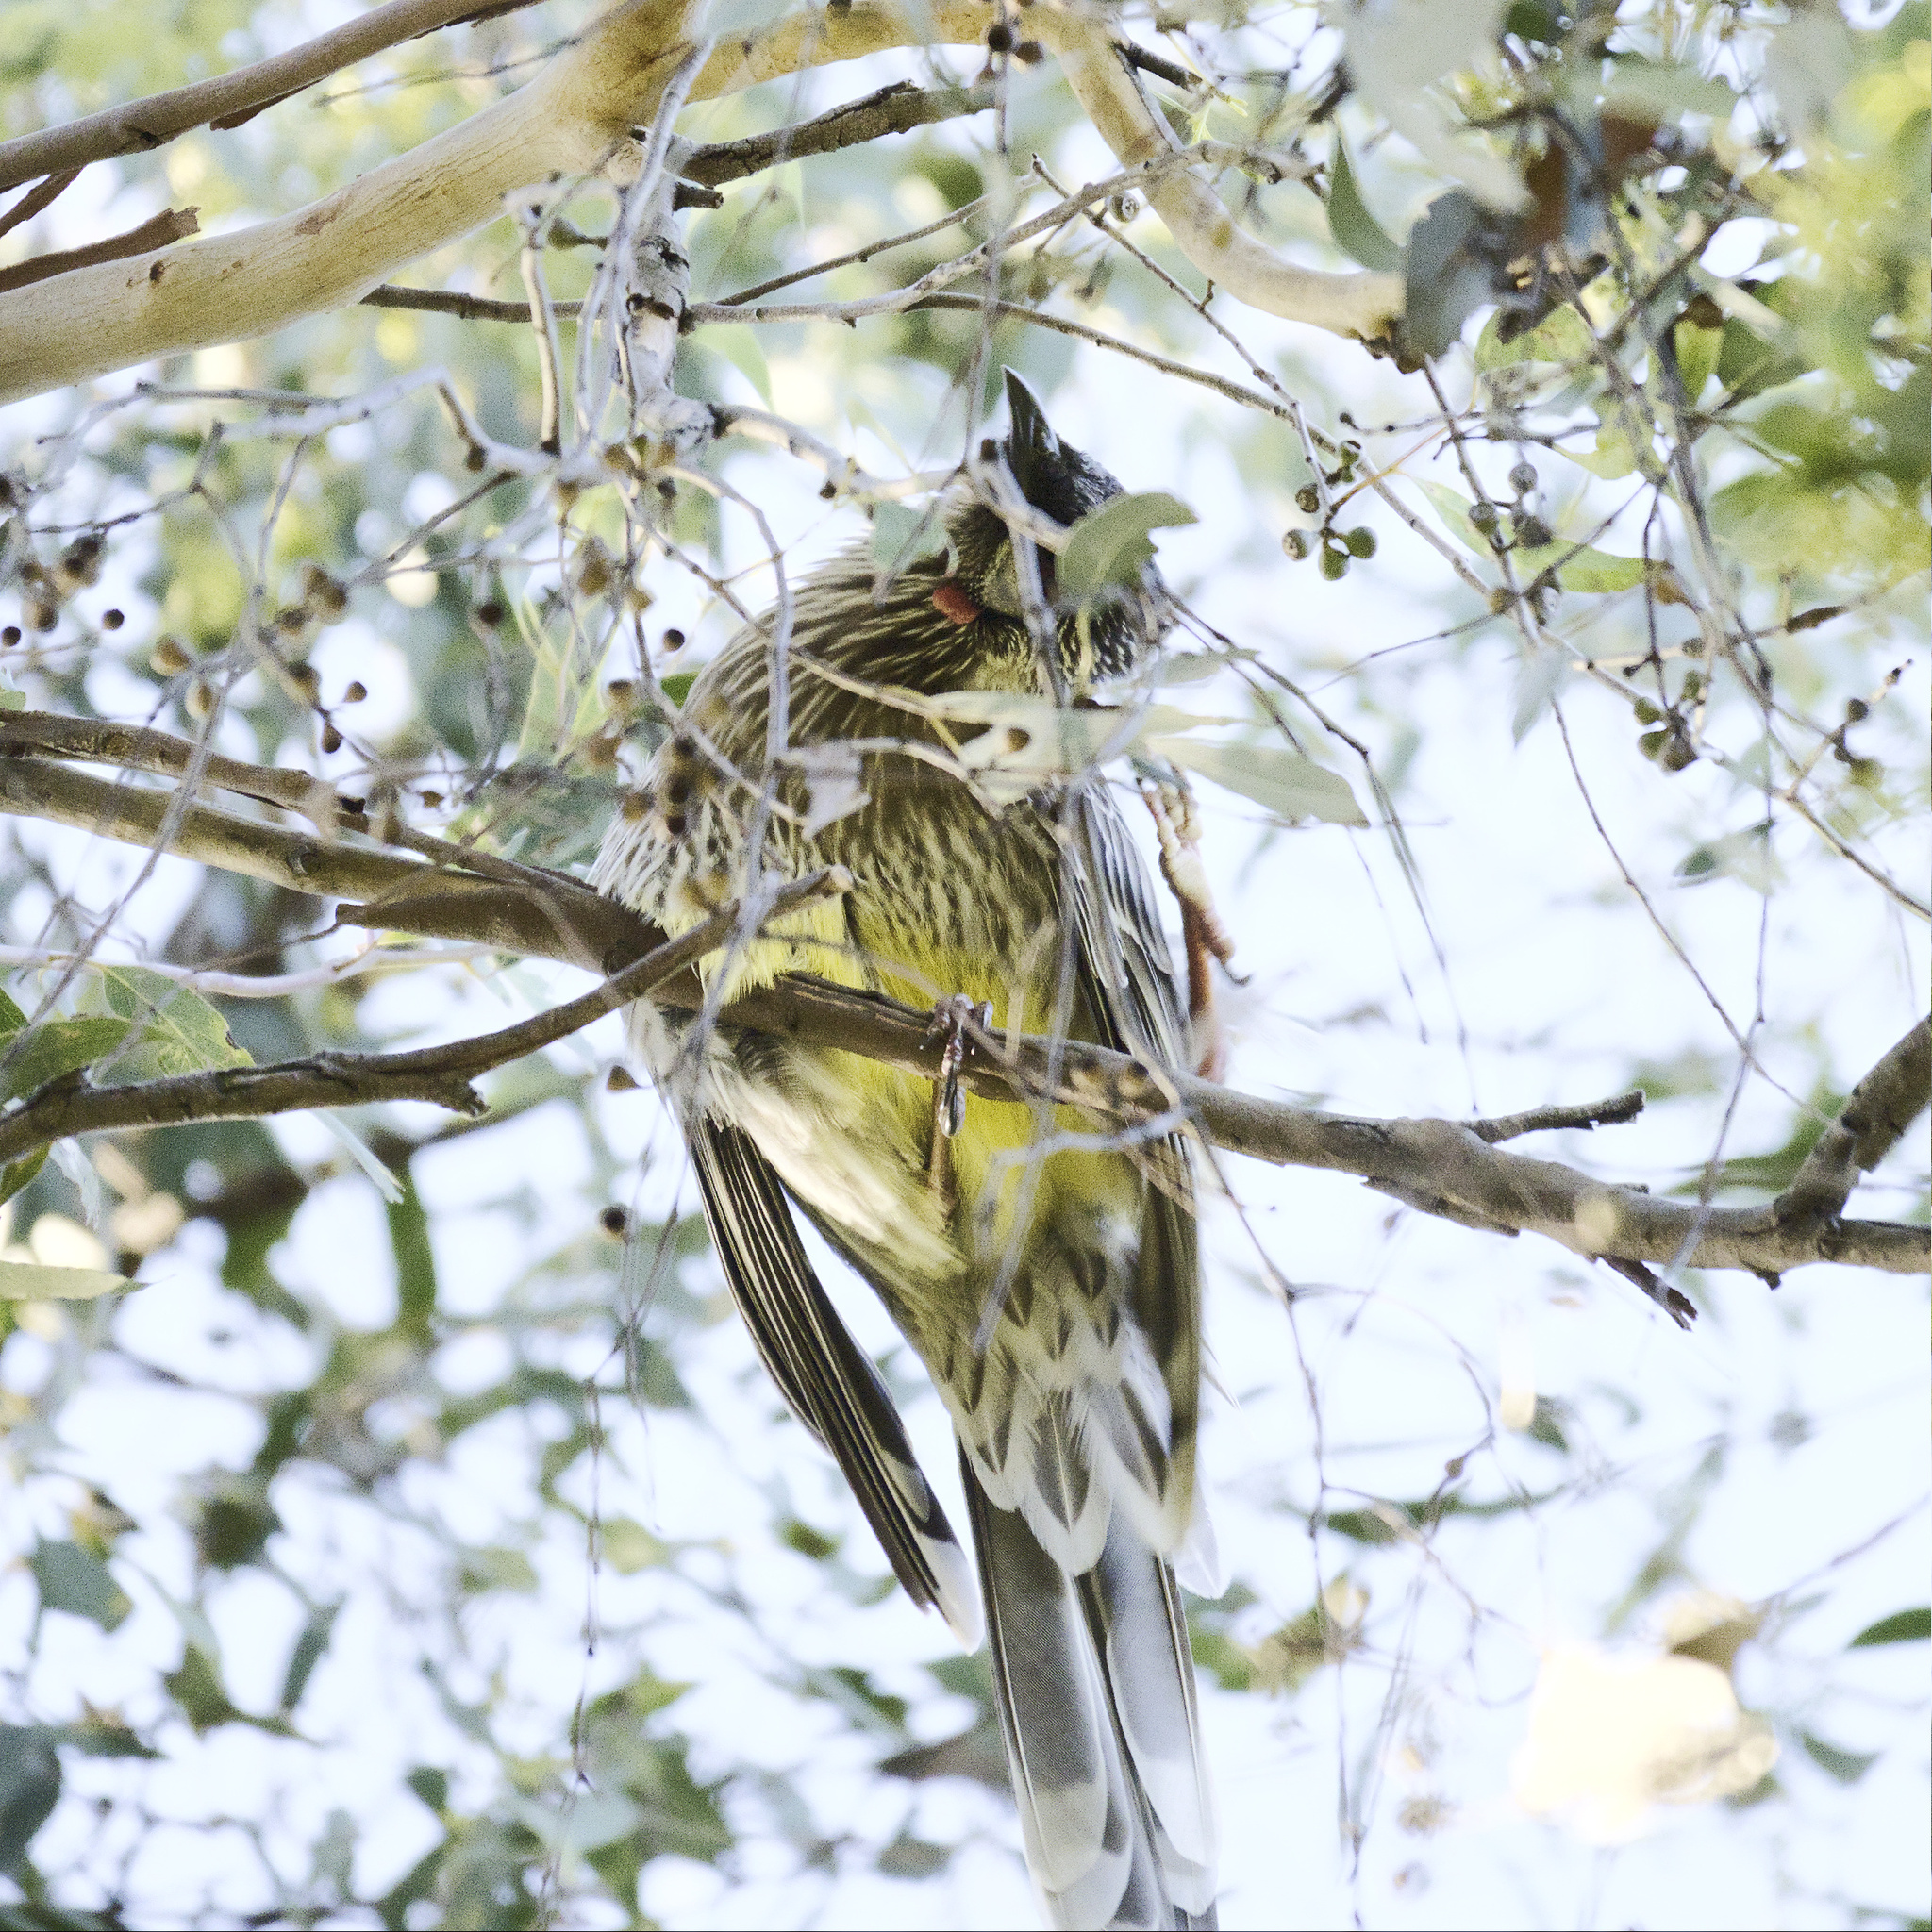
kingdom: Animalia
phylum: Chordata
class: Aves
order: Passeriformes
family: Meliphagidae
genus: Anthochaera
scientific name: Anthochaera carunculata
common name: Red wattlebird
